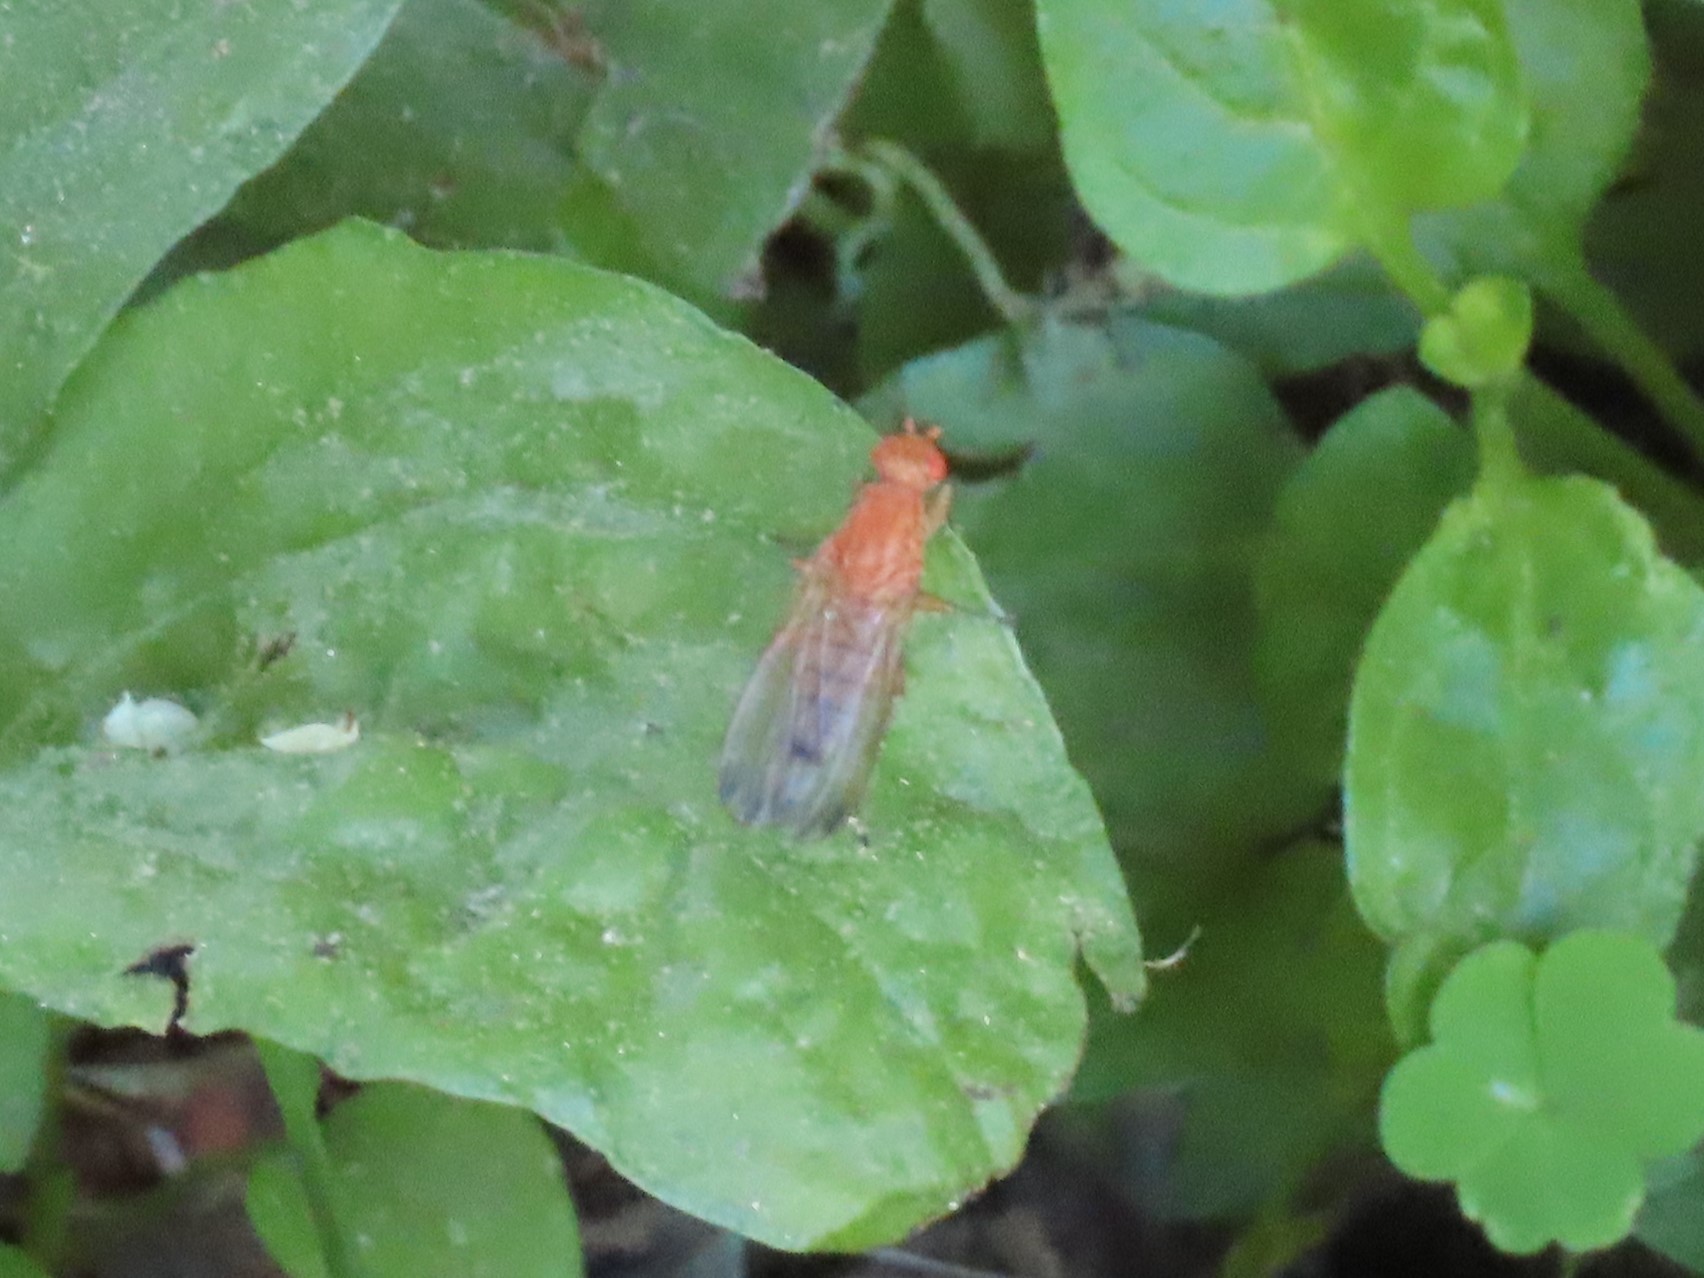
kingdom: Animalia
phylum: Arthropoda
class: Insecta
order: Diptera
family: Heleomyzidae
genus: Amoebaleria
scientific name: Amoebaleria helvola
